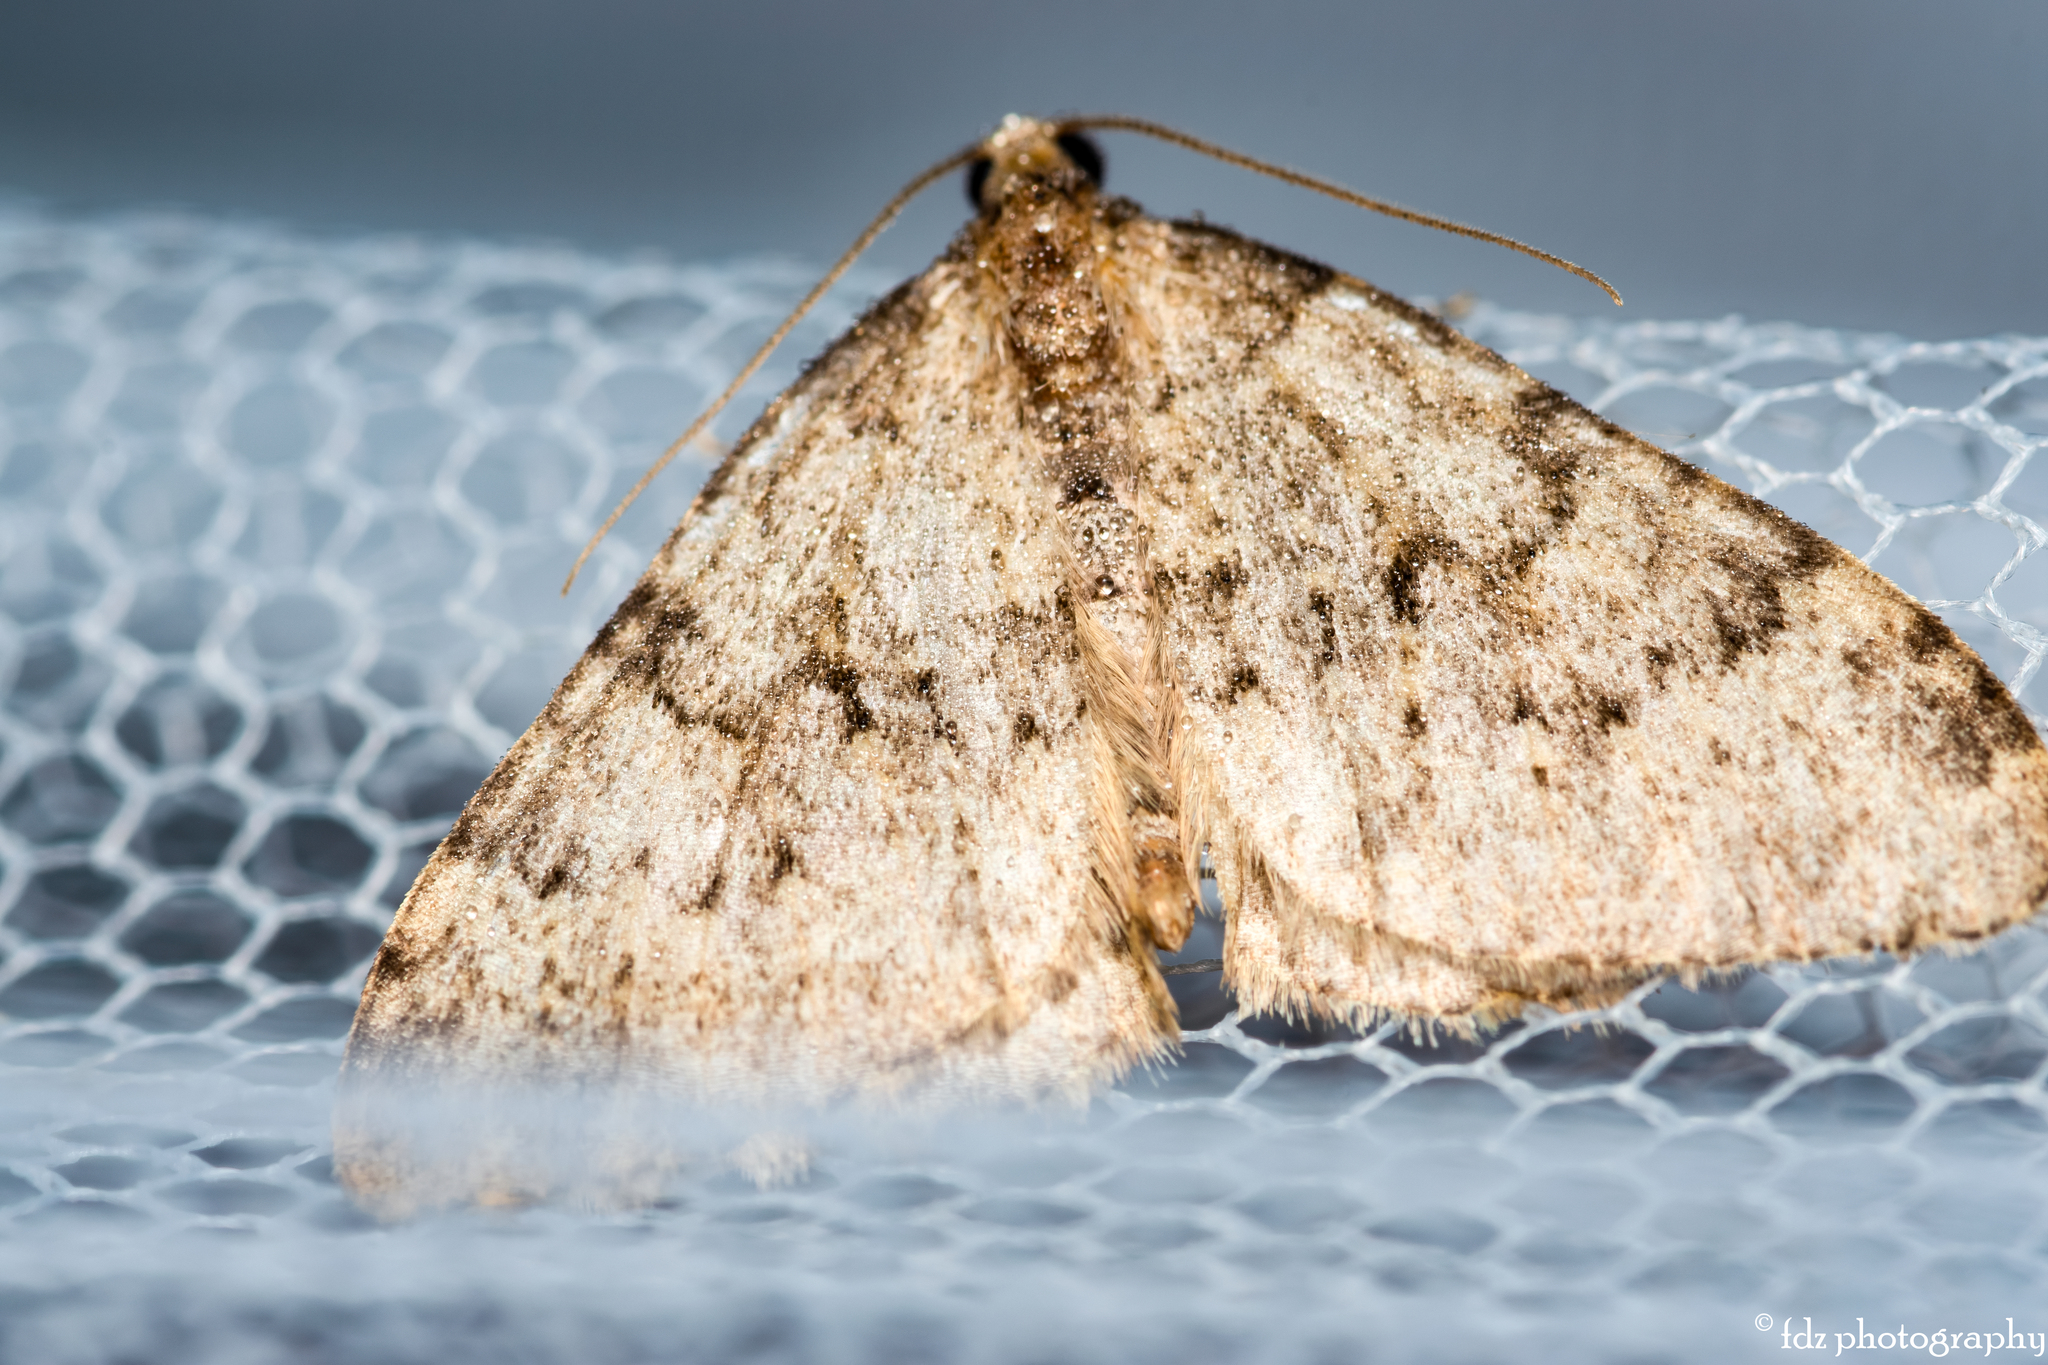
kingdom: Animalia
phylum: Arthropoda
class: Insecta
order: Lepidoptera
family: Geometridae
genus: Nebula
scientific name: Nebula ibericata
